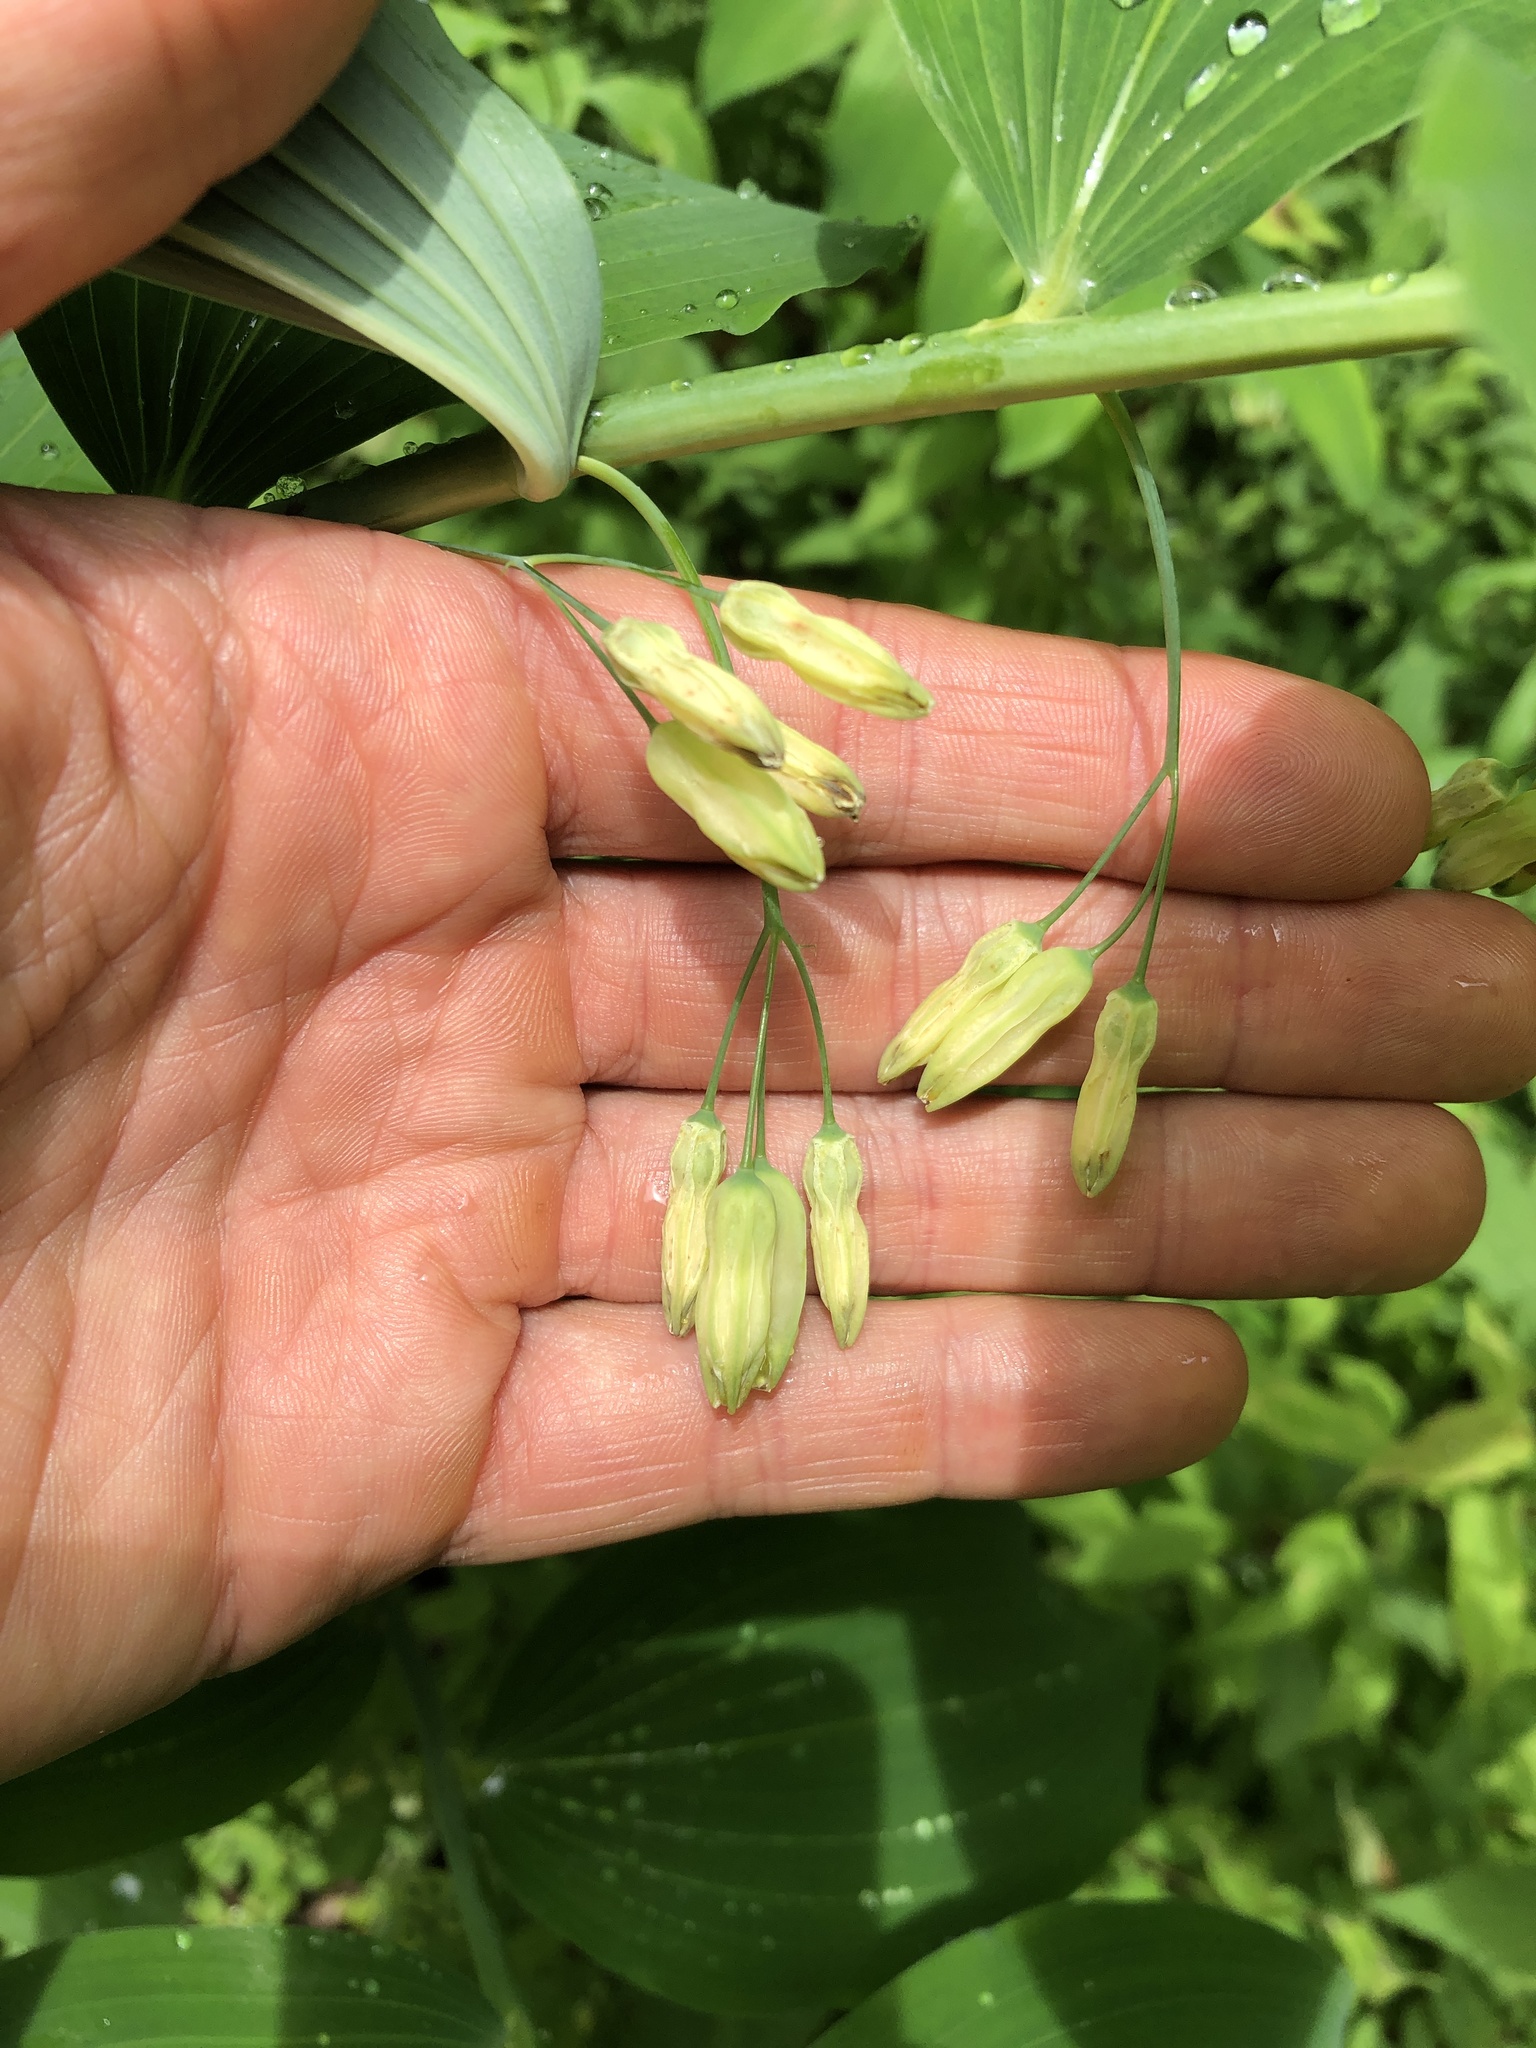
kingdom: Plantae
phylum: Tracheophyta
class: Liliopsida
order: Asparagales
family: Asparagaceae
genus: Polygonatum
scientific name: Polygonatum biflorum
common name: American solomon's-seal
